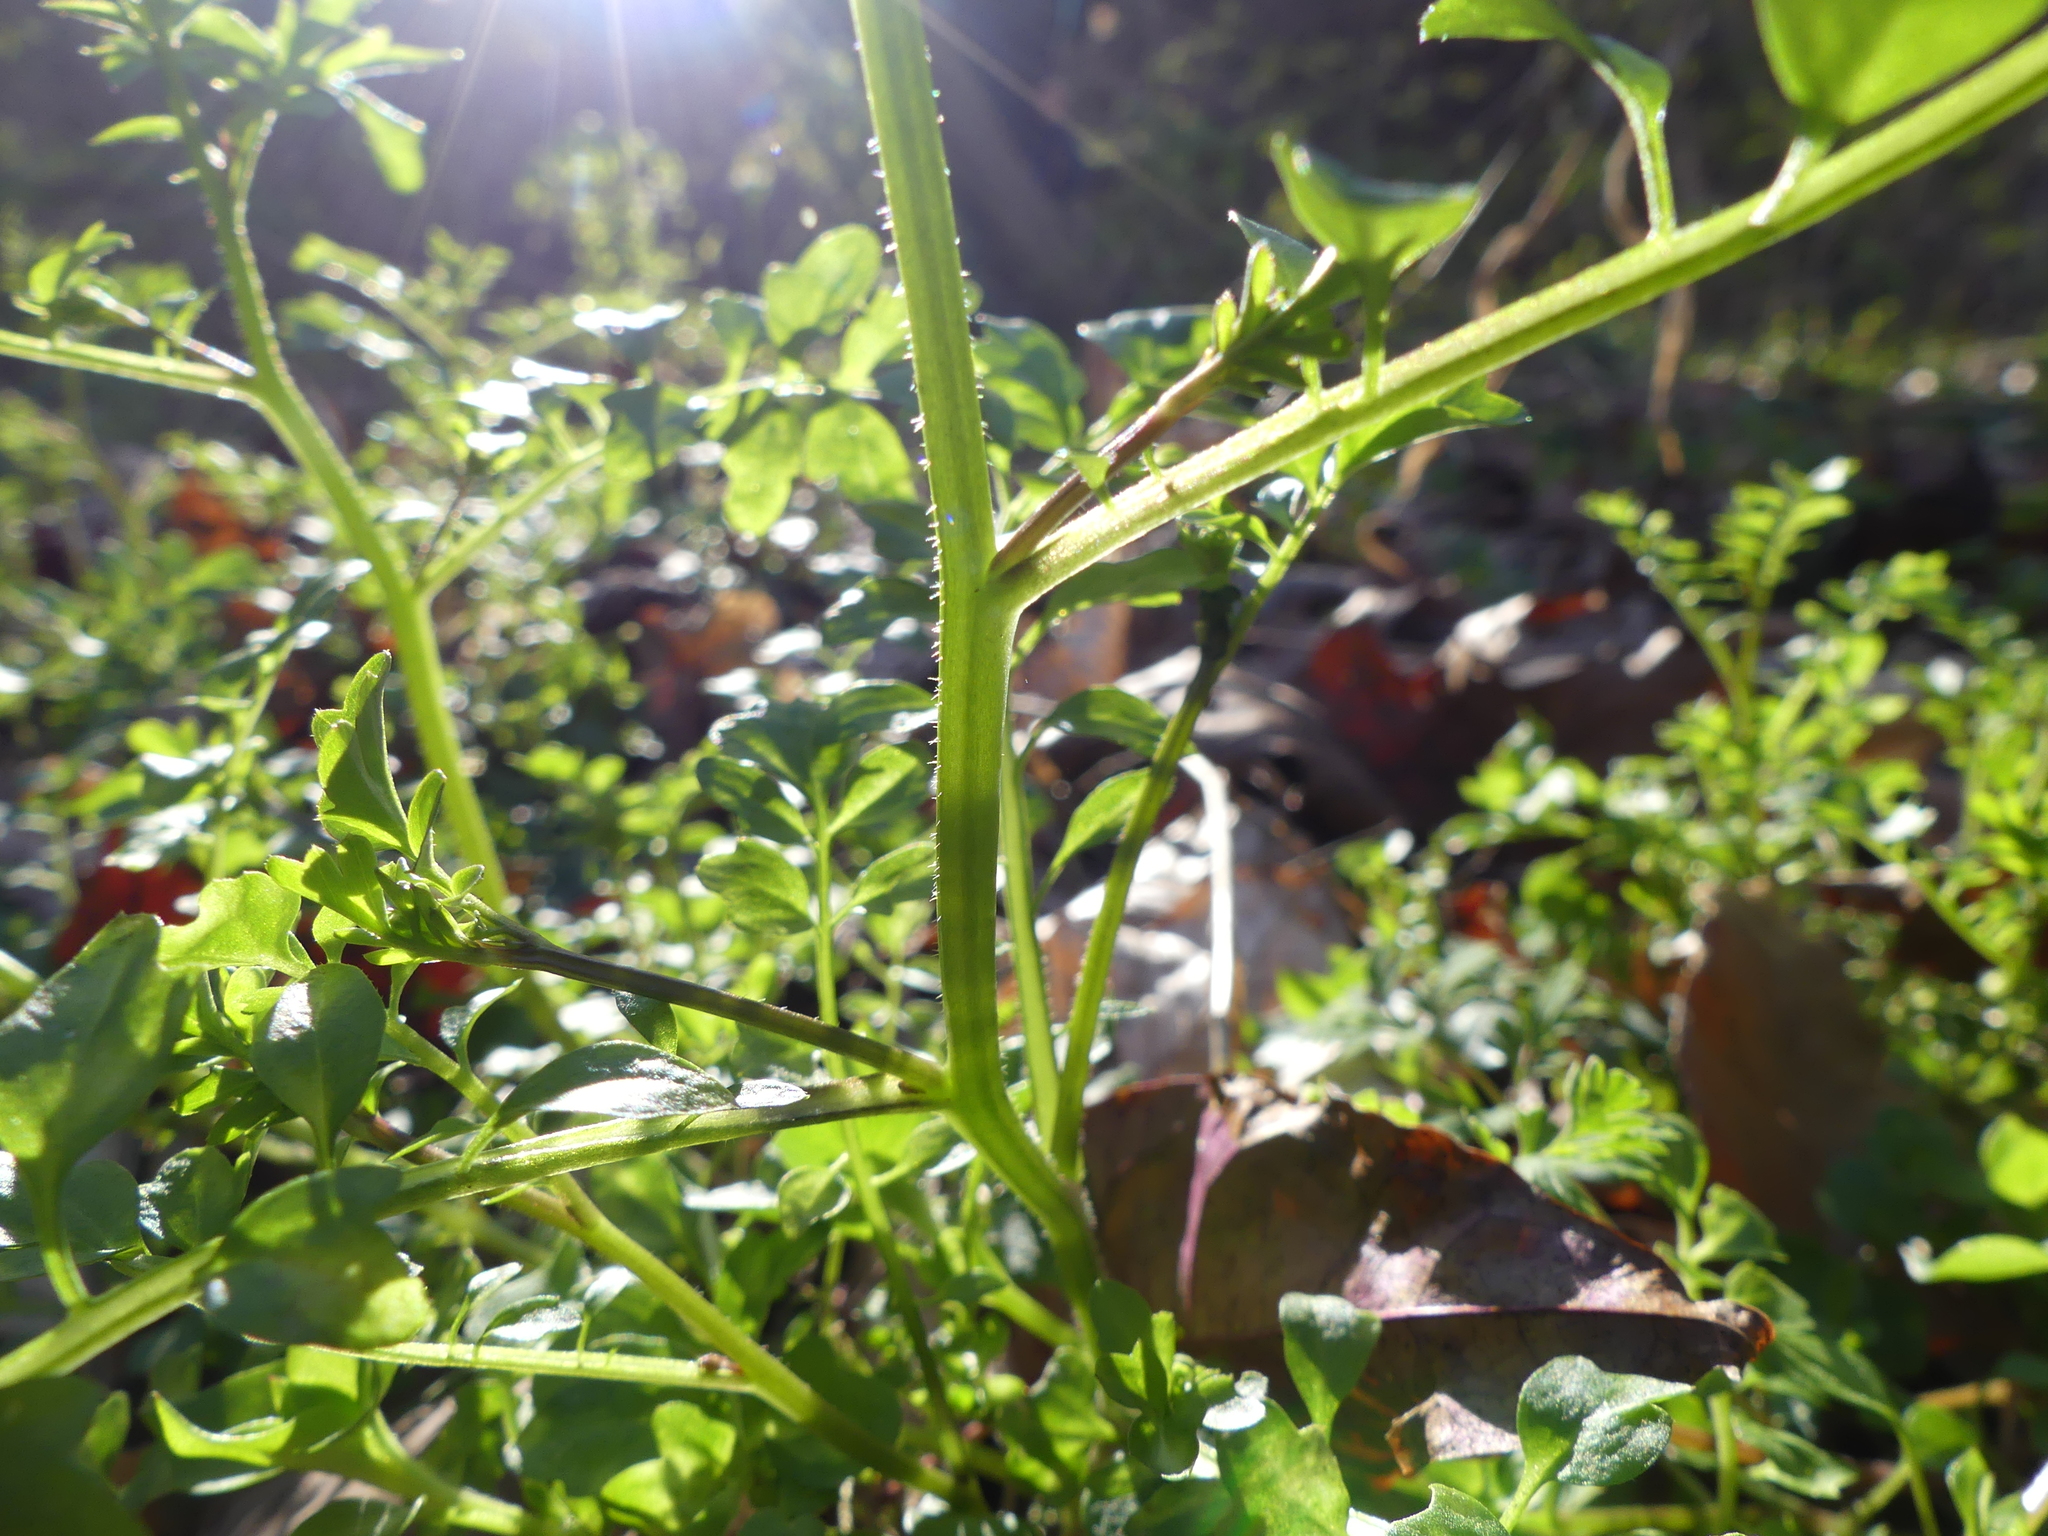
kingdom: Plantae
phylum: Tracheophyta
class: Magnoliopsida
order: Brassicales
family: Brassicaceae
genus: Cardamine
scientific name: Cardamine pensylvanica
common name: Pennsylvania bittercress
